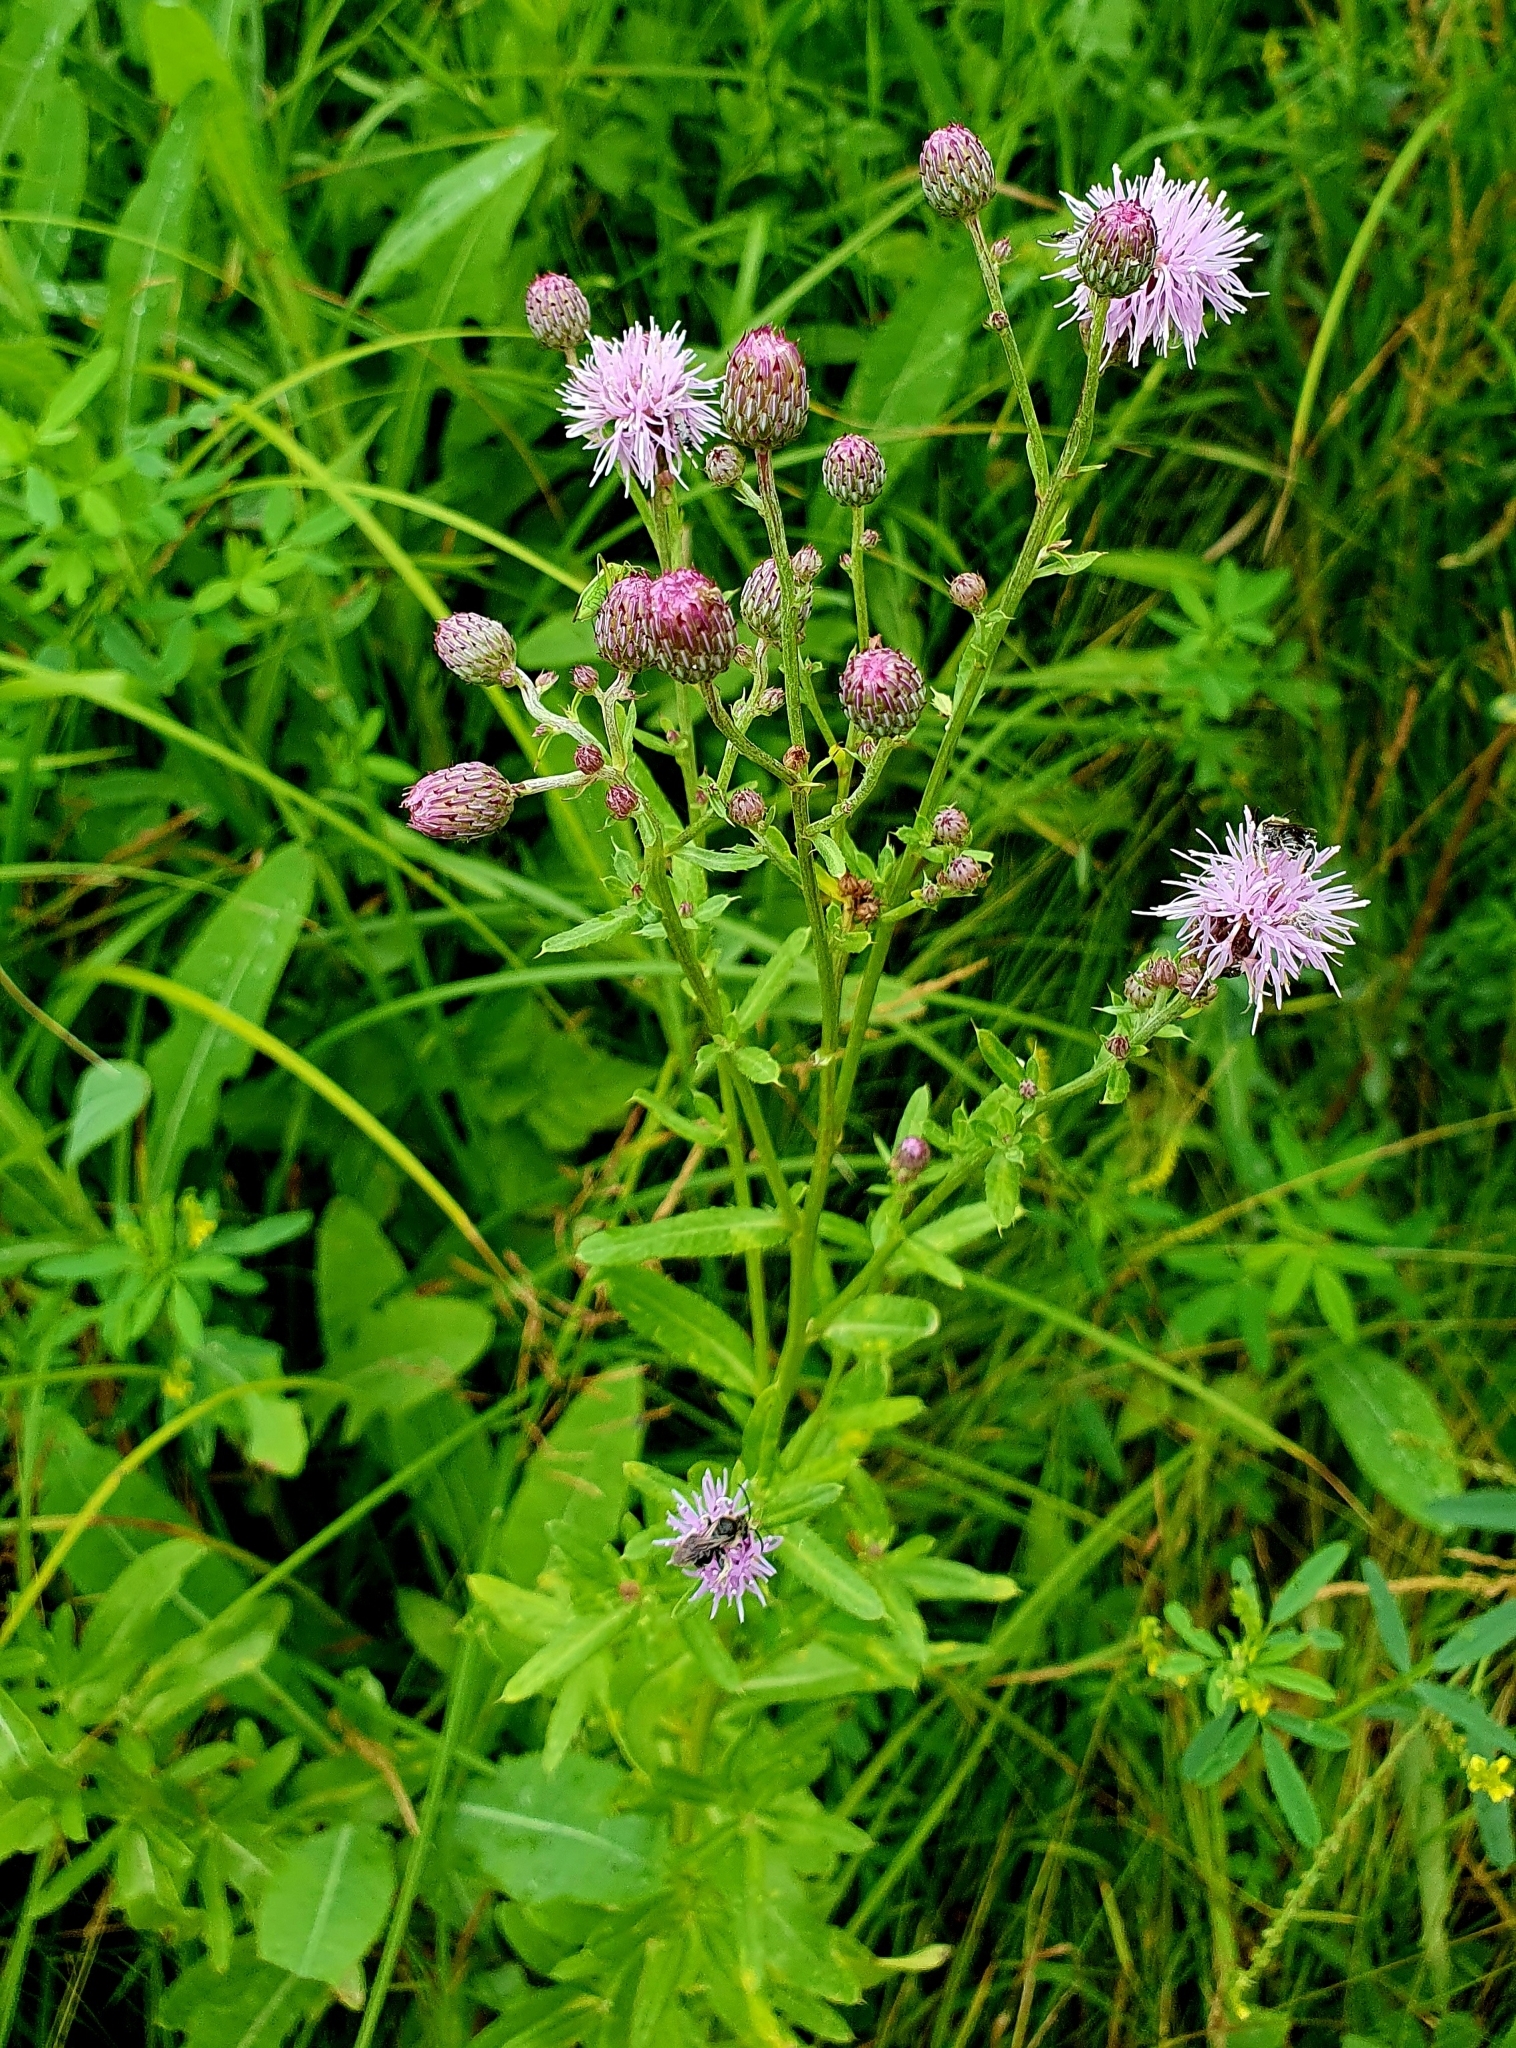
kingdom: Plantae
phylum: Tracheophyta
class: Magnoliopsida
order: Asterales
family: Asteraceae
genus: Cirsium
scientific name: Cirsium arvense
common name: Creeping thistle
